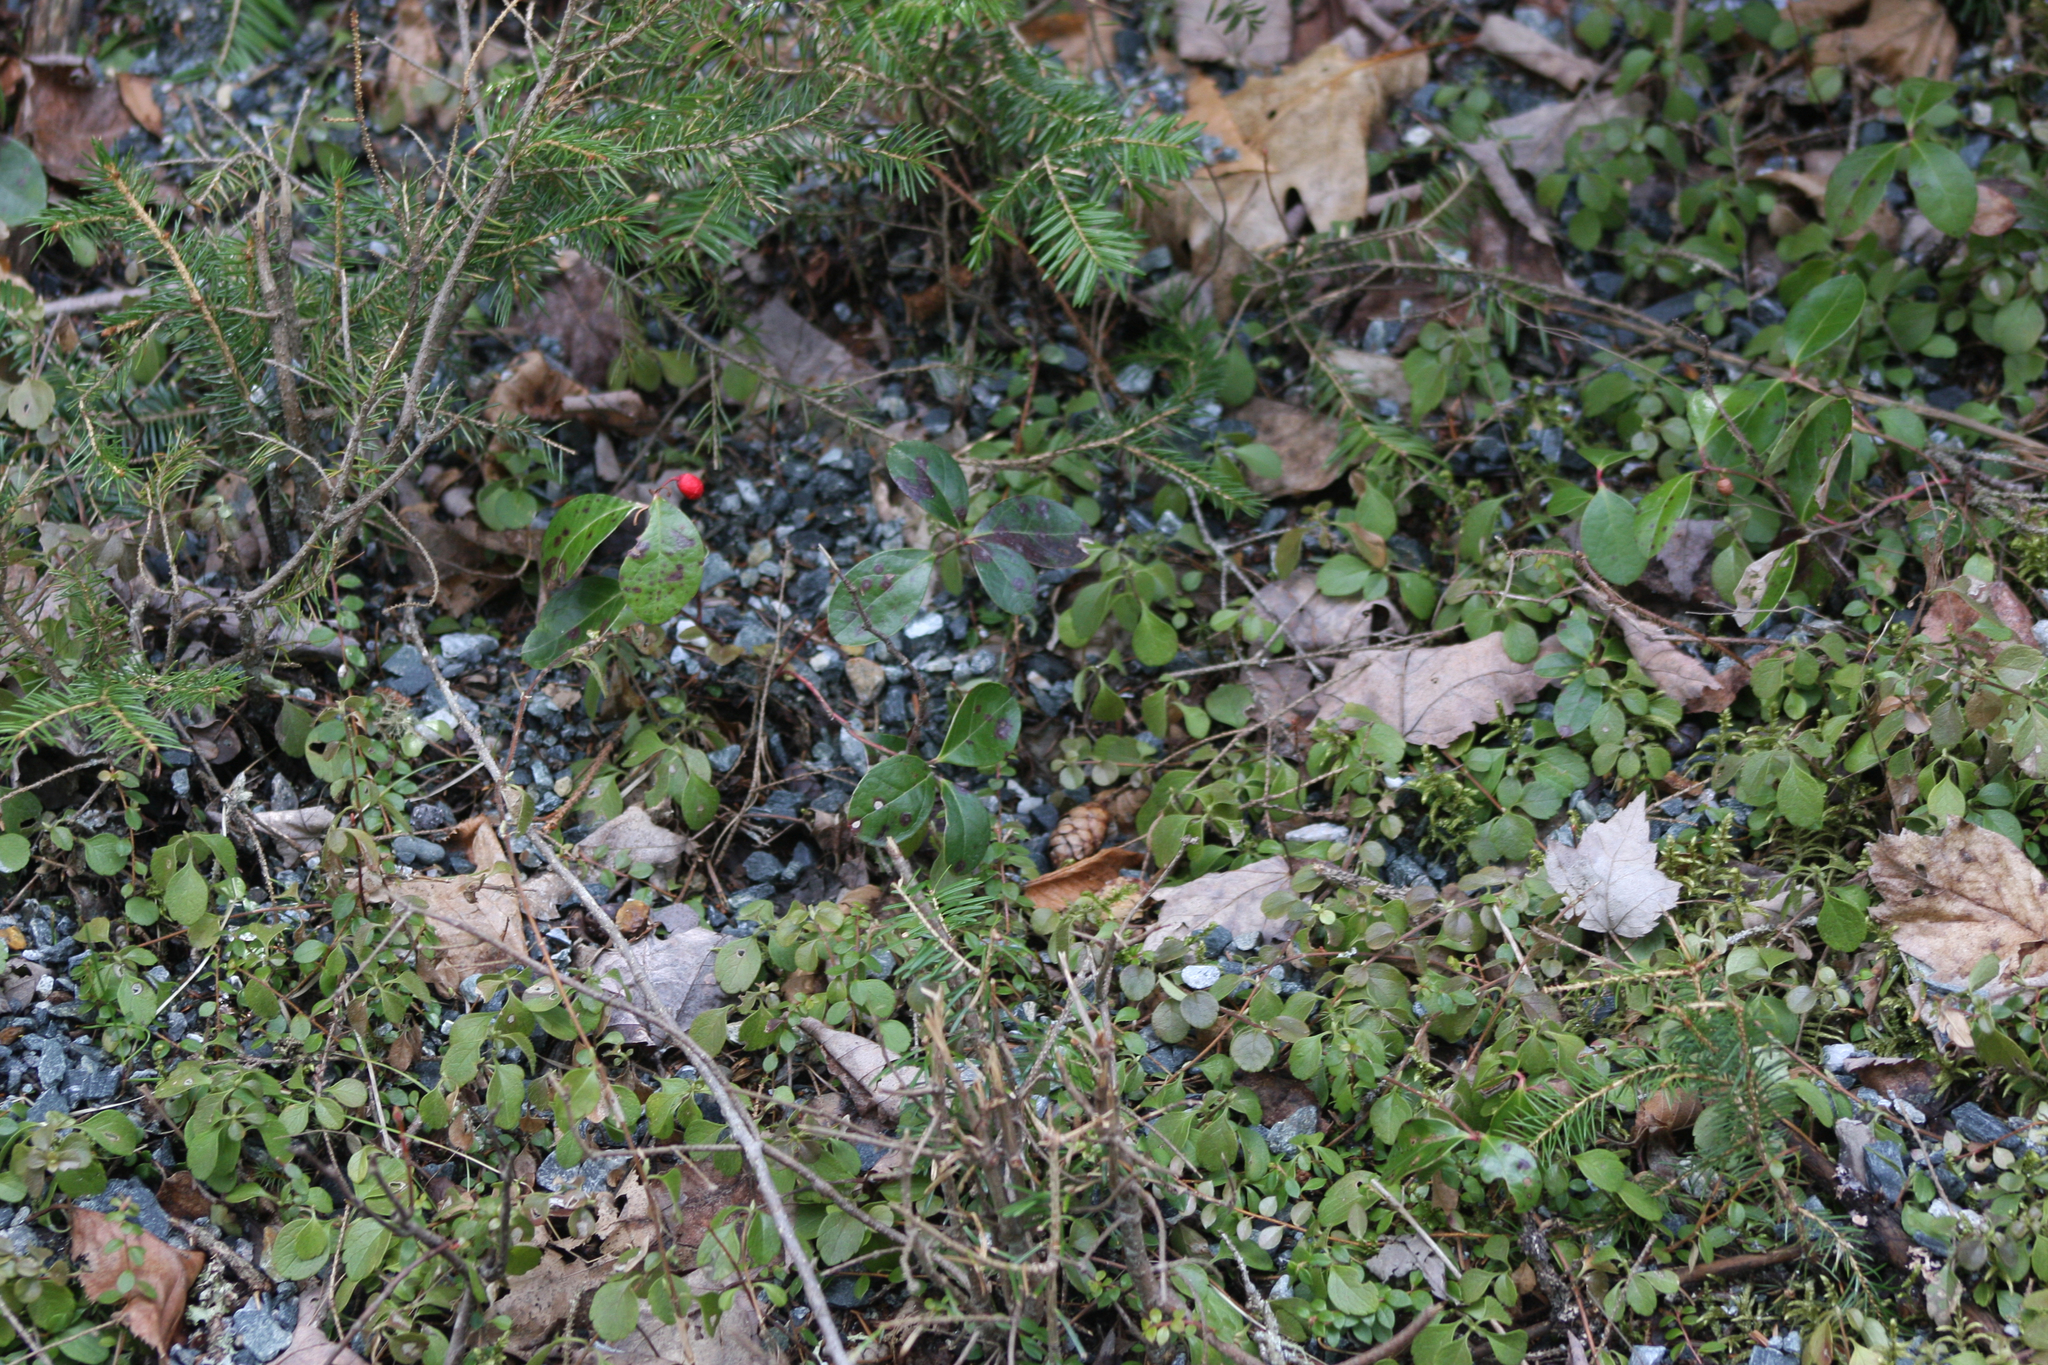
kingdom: Plantae
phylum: Tracheophyta
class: Magnoliopsida
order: Ericales
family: Ericaceae
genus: Gaultheria
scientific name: Gaultheria procumbens
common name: Checkerberry
